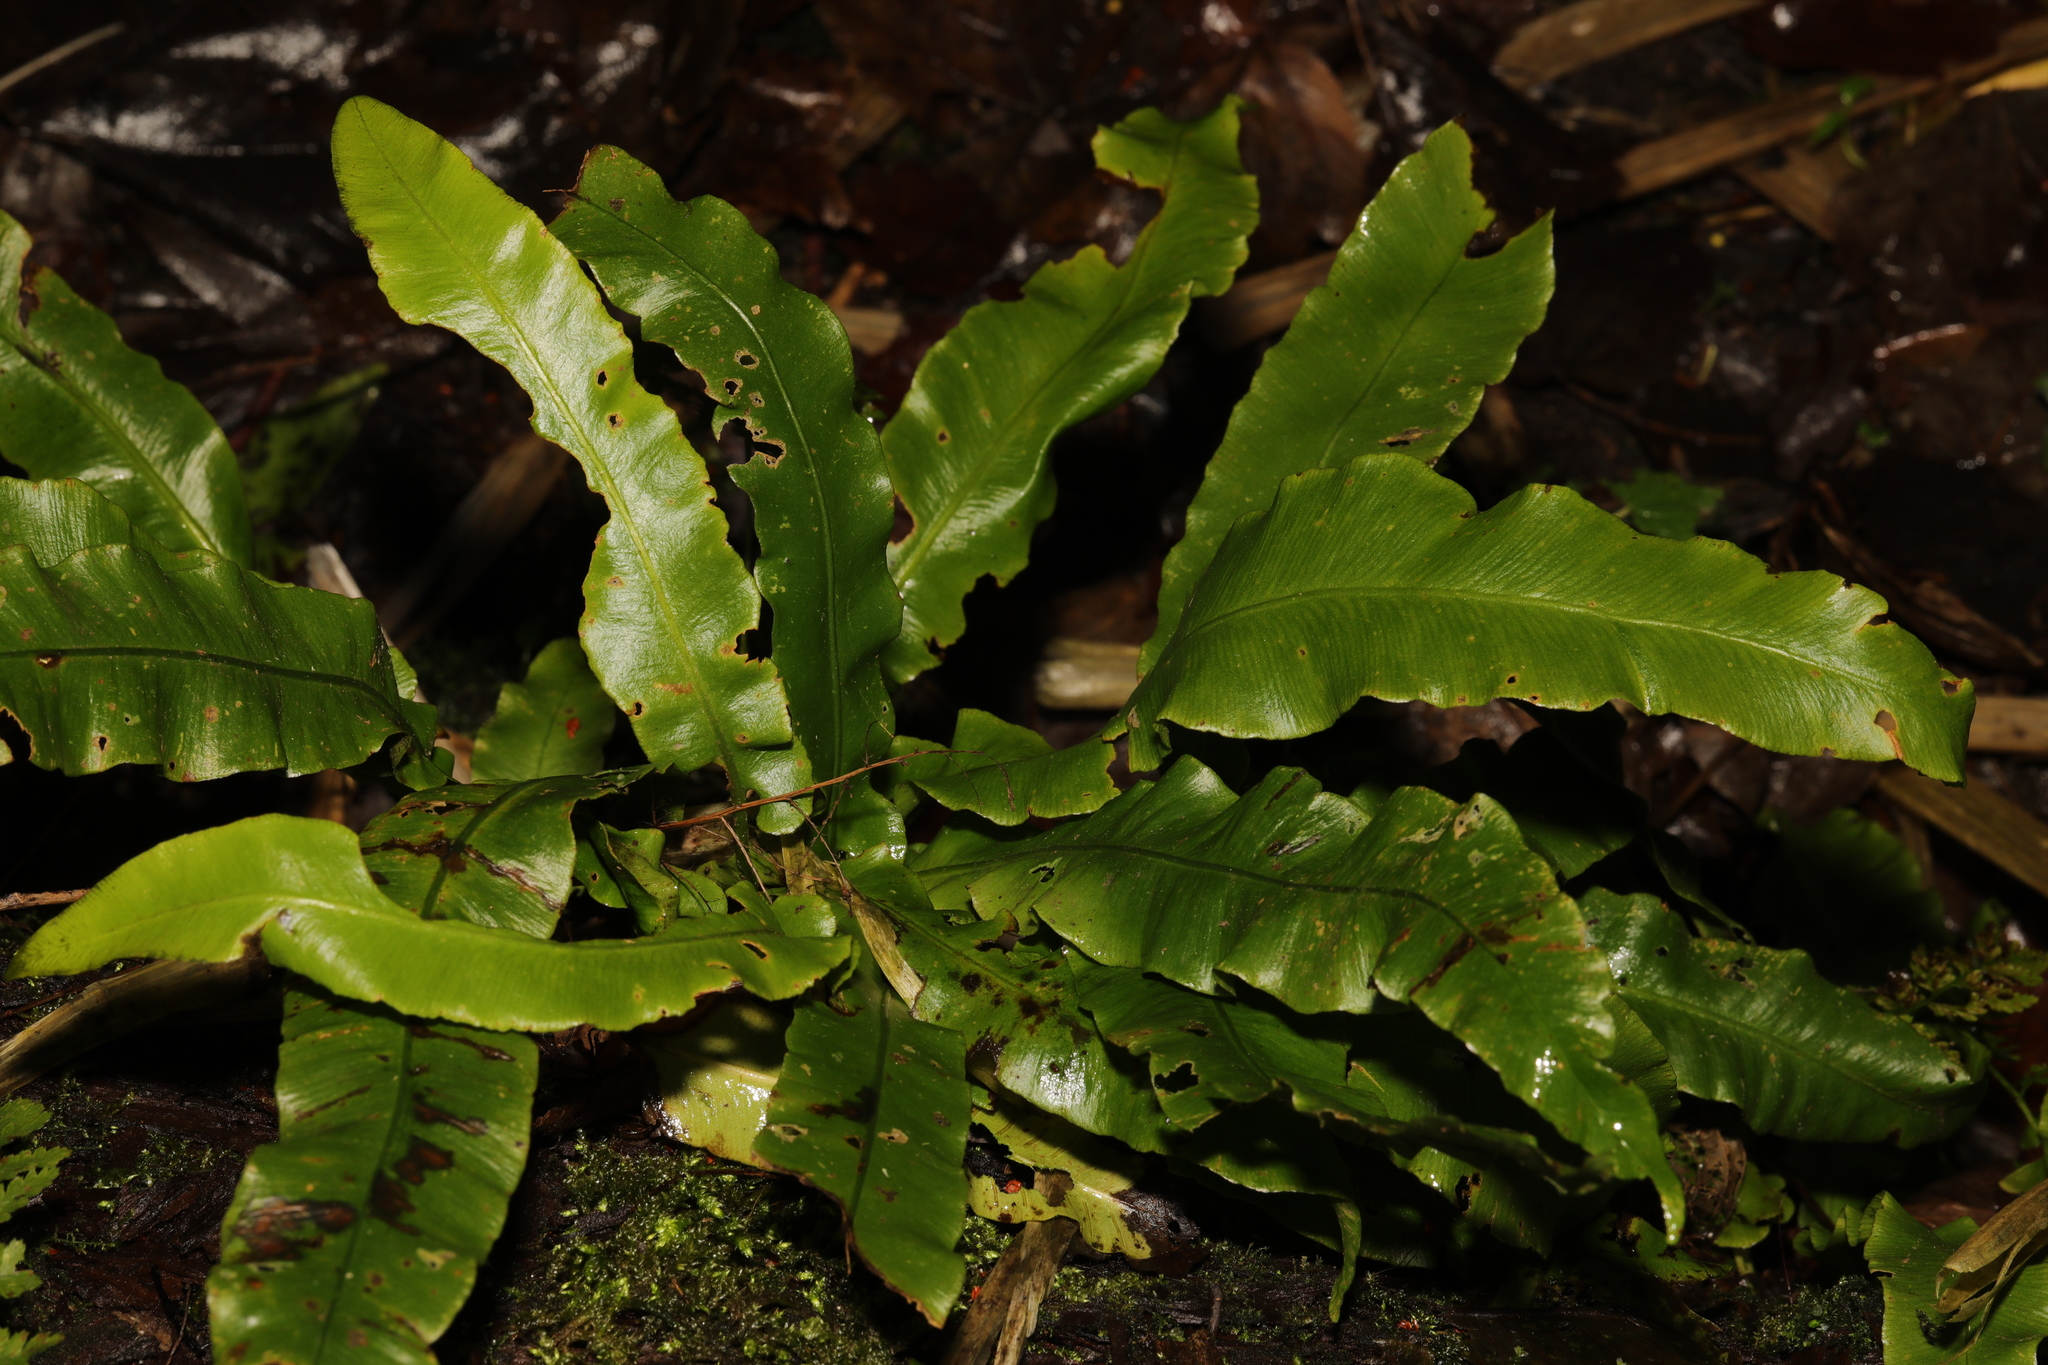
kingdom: Plantae
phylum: Tracheophyta
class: Polypodiopsida
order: Polypodiales
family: Aspleniaceae
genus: Asplenium
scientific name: Asplenium scolopendrium
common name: Hart's-tongue fern
